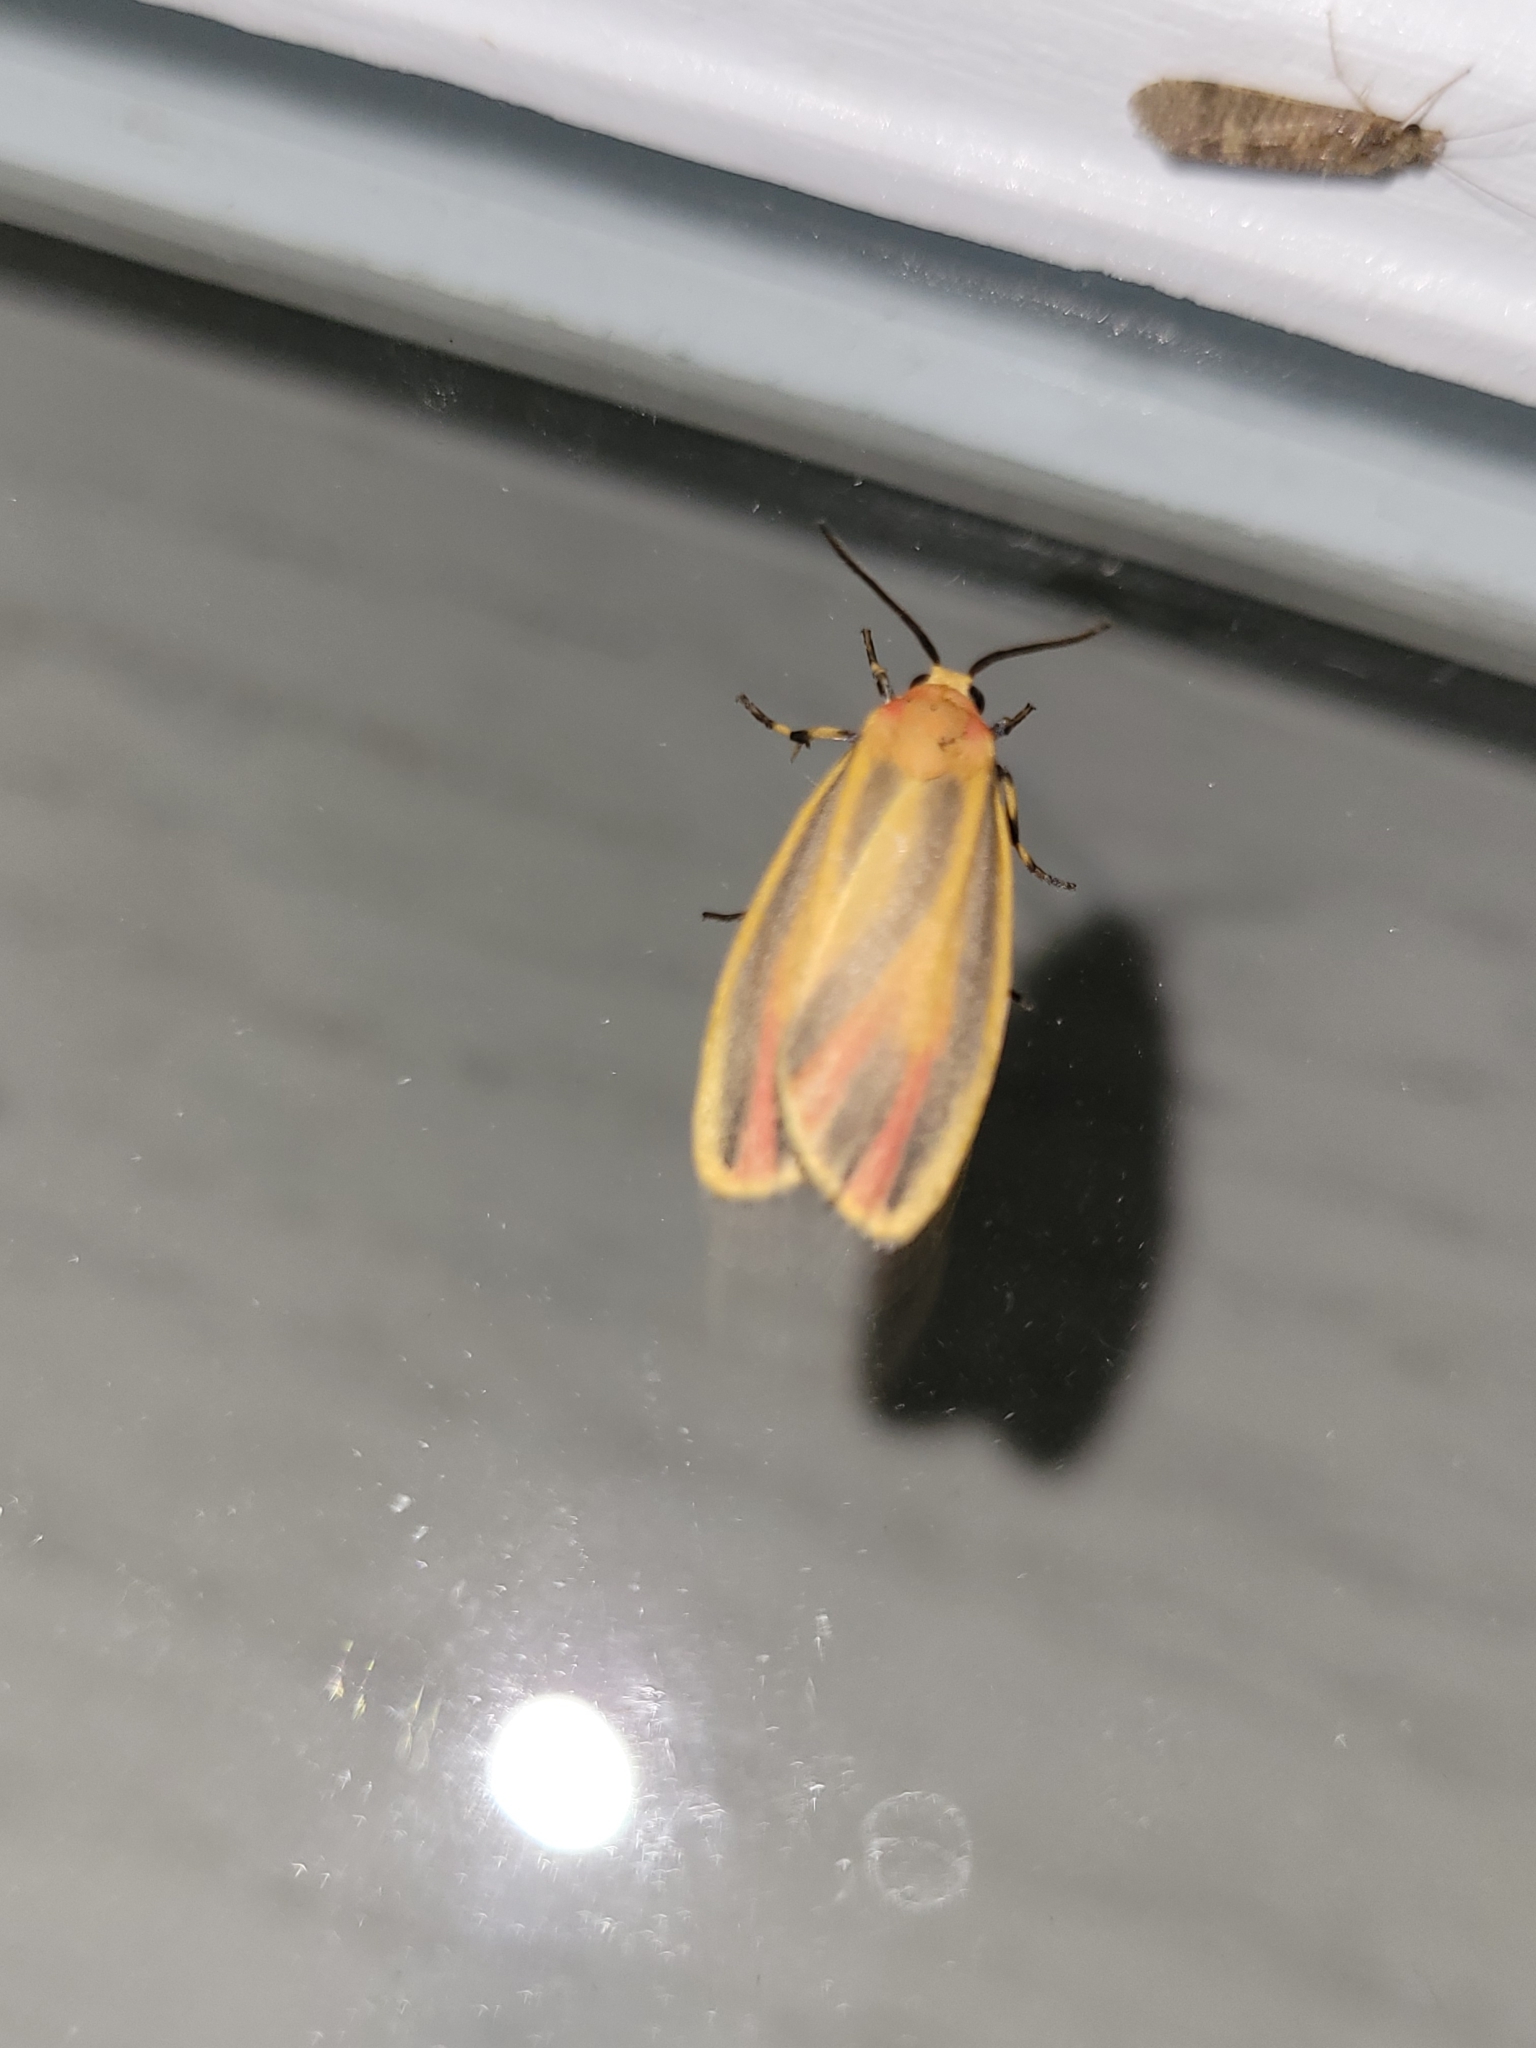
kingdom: Animalia
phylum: Arthropoda
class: Insecta
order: Lepidoptera
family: Erebidae
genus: Hypoprepia
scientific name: Hypoprepia fucosa
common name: Painted lichen moth
